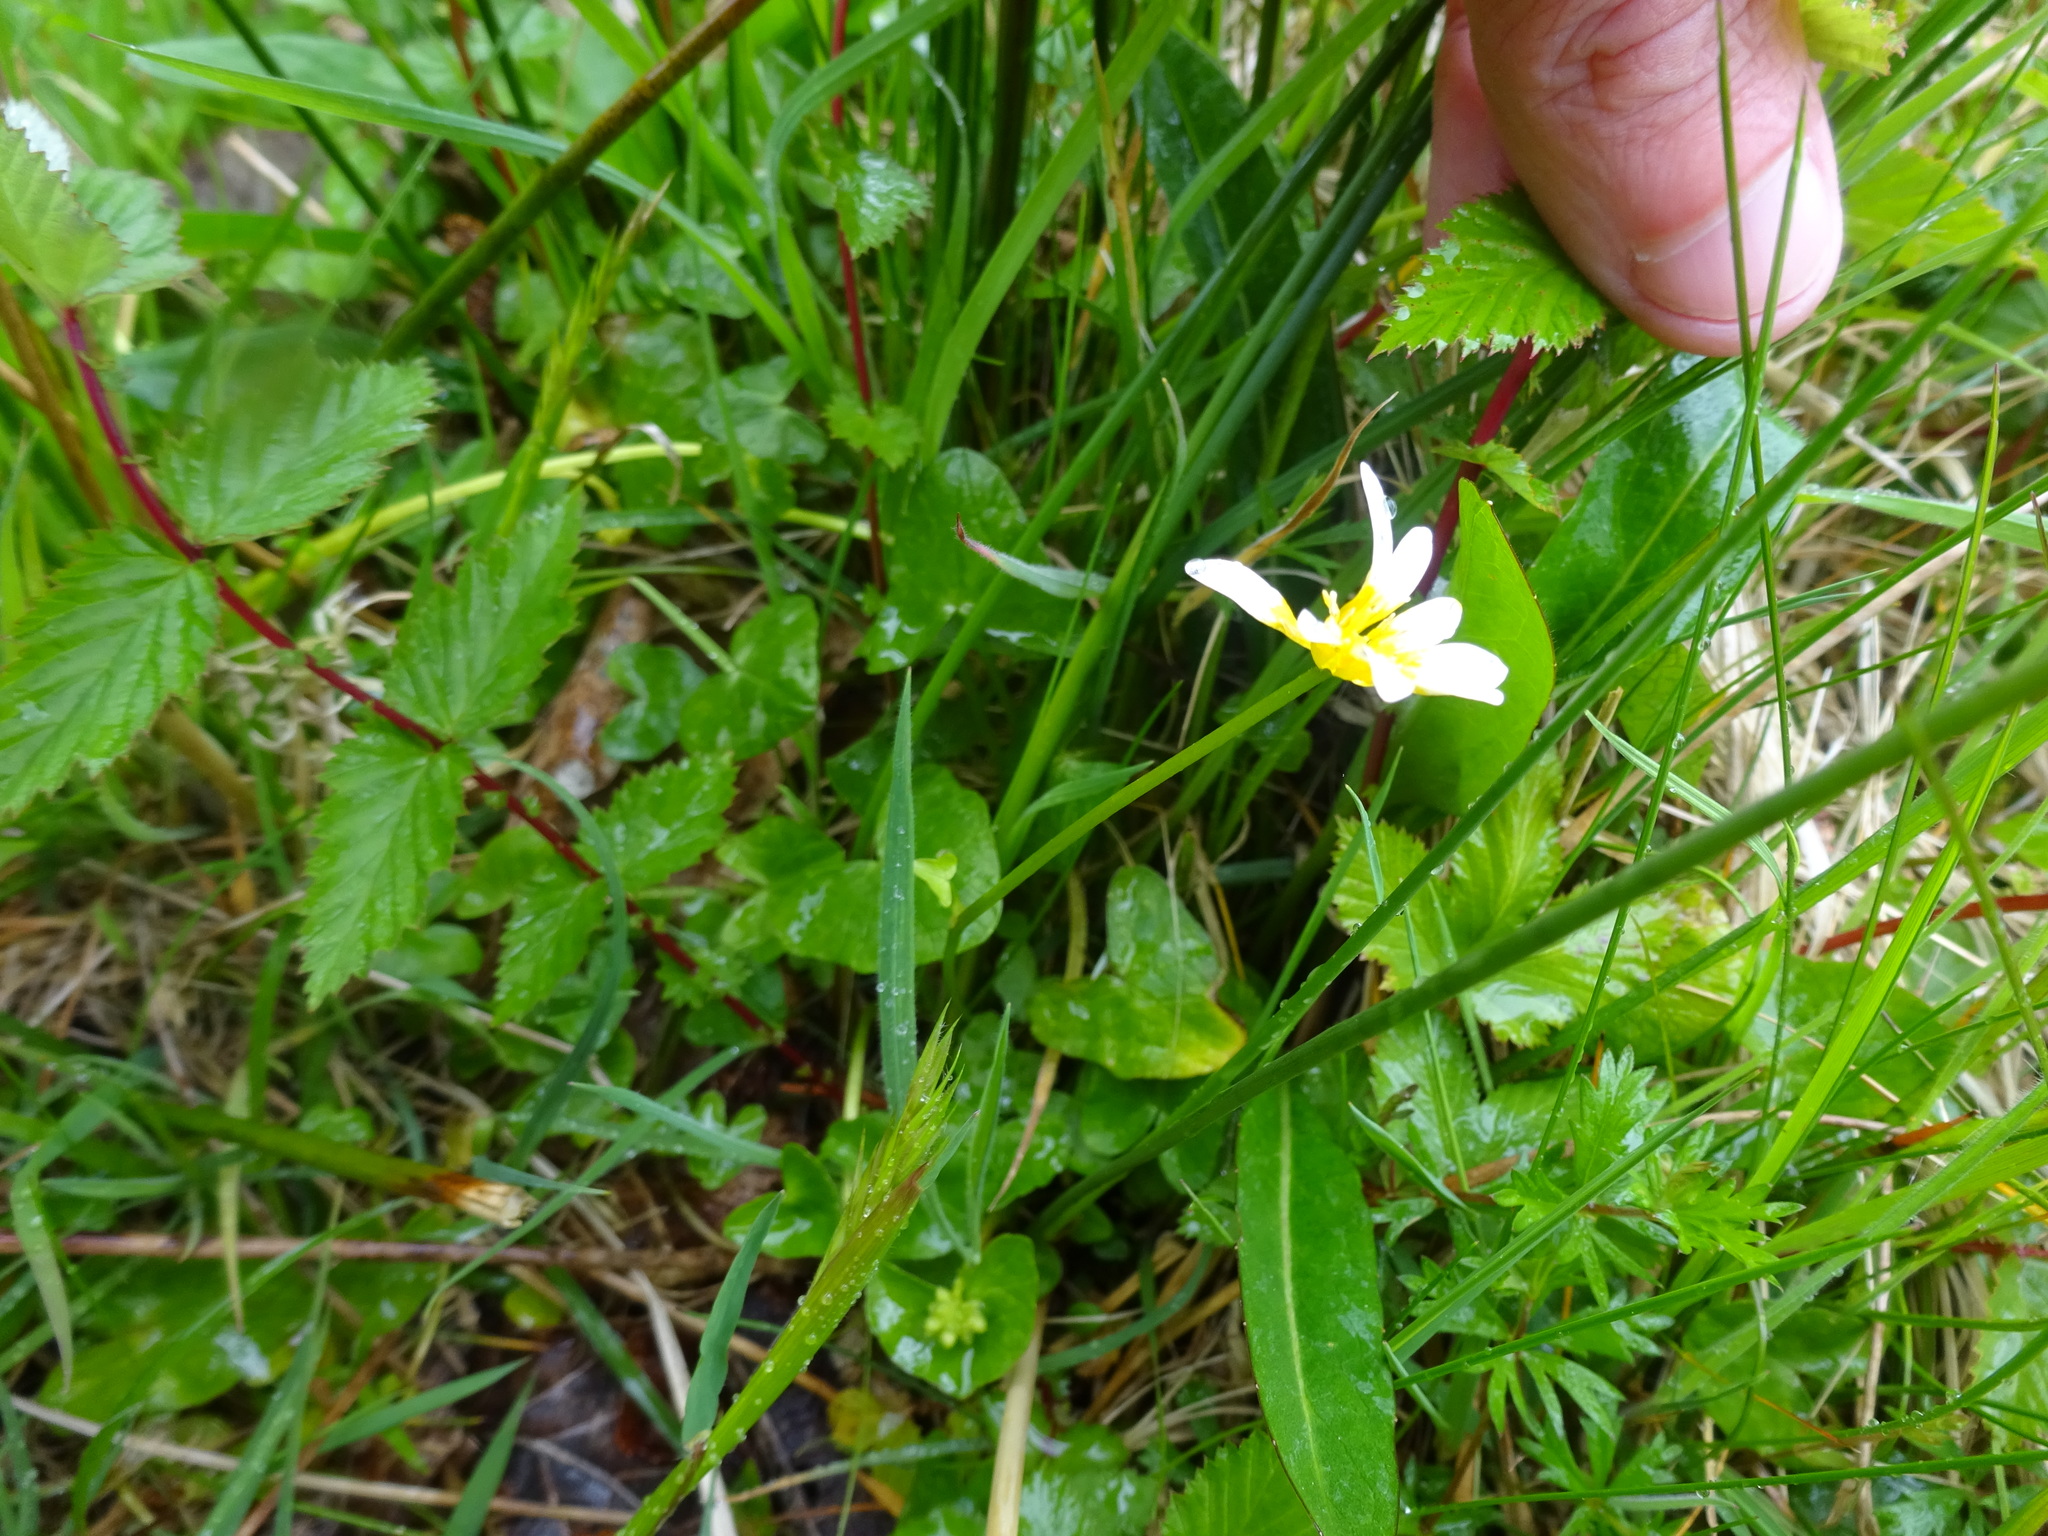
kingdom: Plantae
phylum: Tracheophyta
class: Magnoliopsida
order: Ranunculales
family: Ranunculaceae
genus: Ficaria
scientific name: Ficaria verna
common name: Lesser celandine
